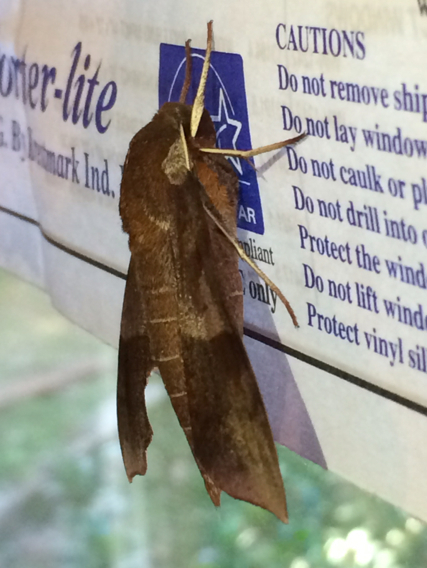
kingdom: Animalia
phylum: Arthropoda
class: Insecta
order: Lepidoptera
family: Sphingidae
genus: Darapsa
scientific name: Darapsa choerilus
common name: Azalea sphinx
